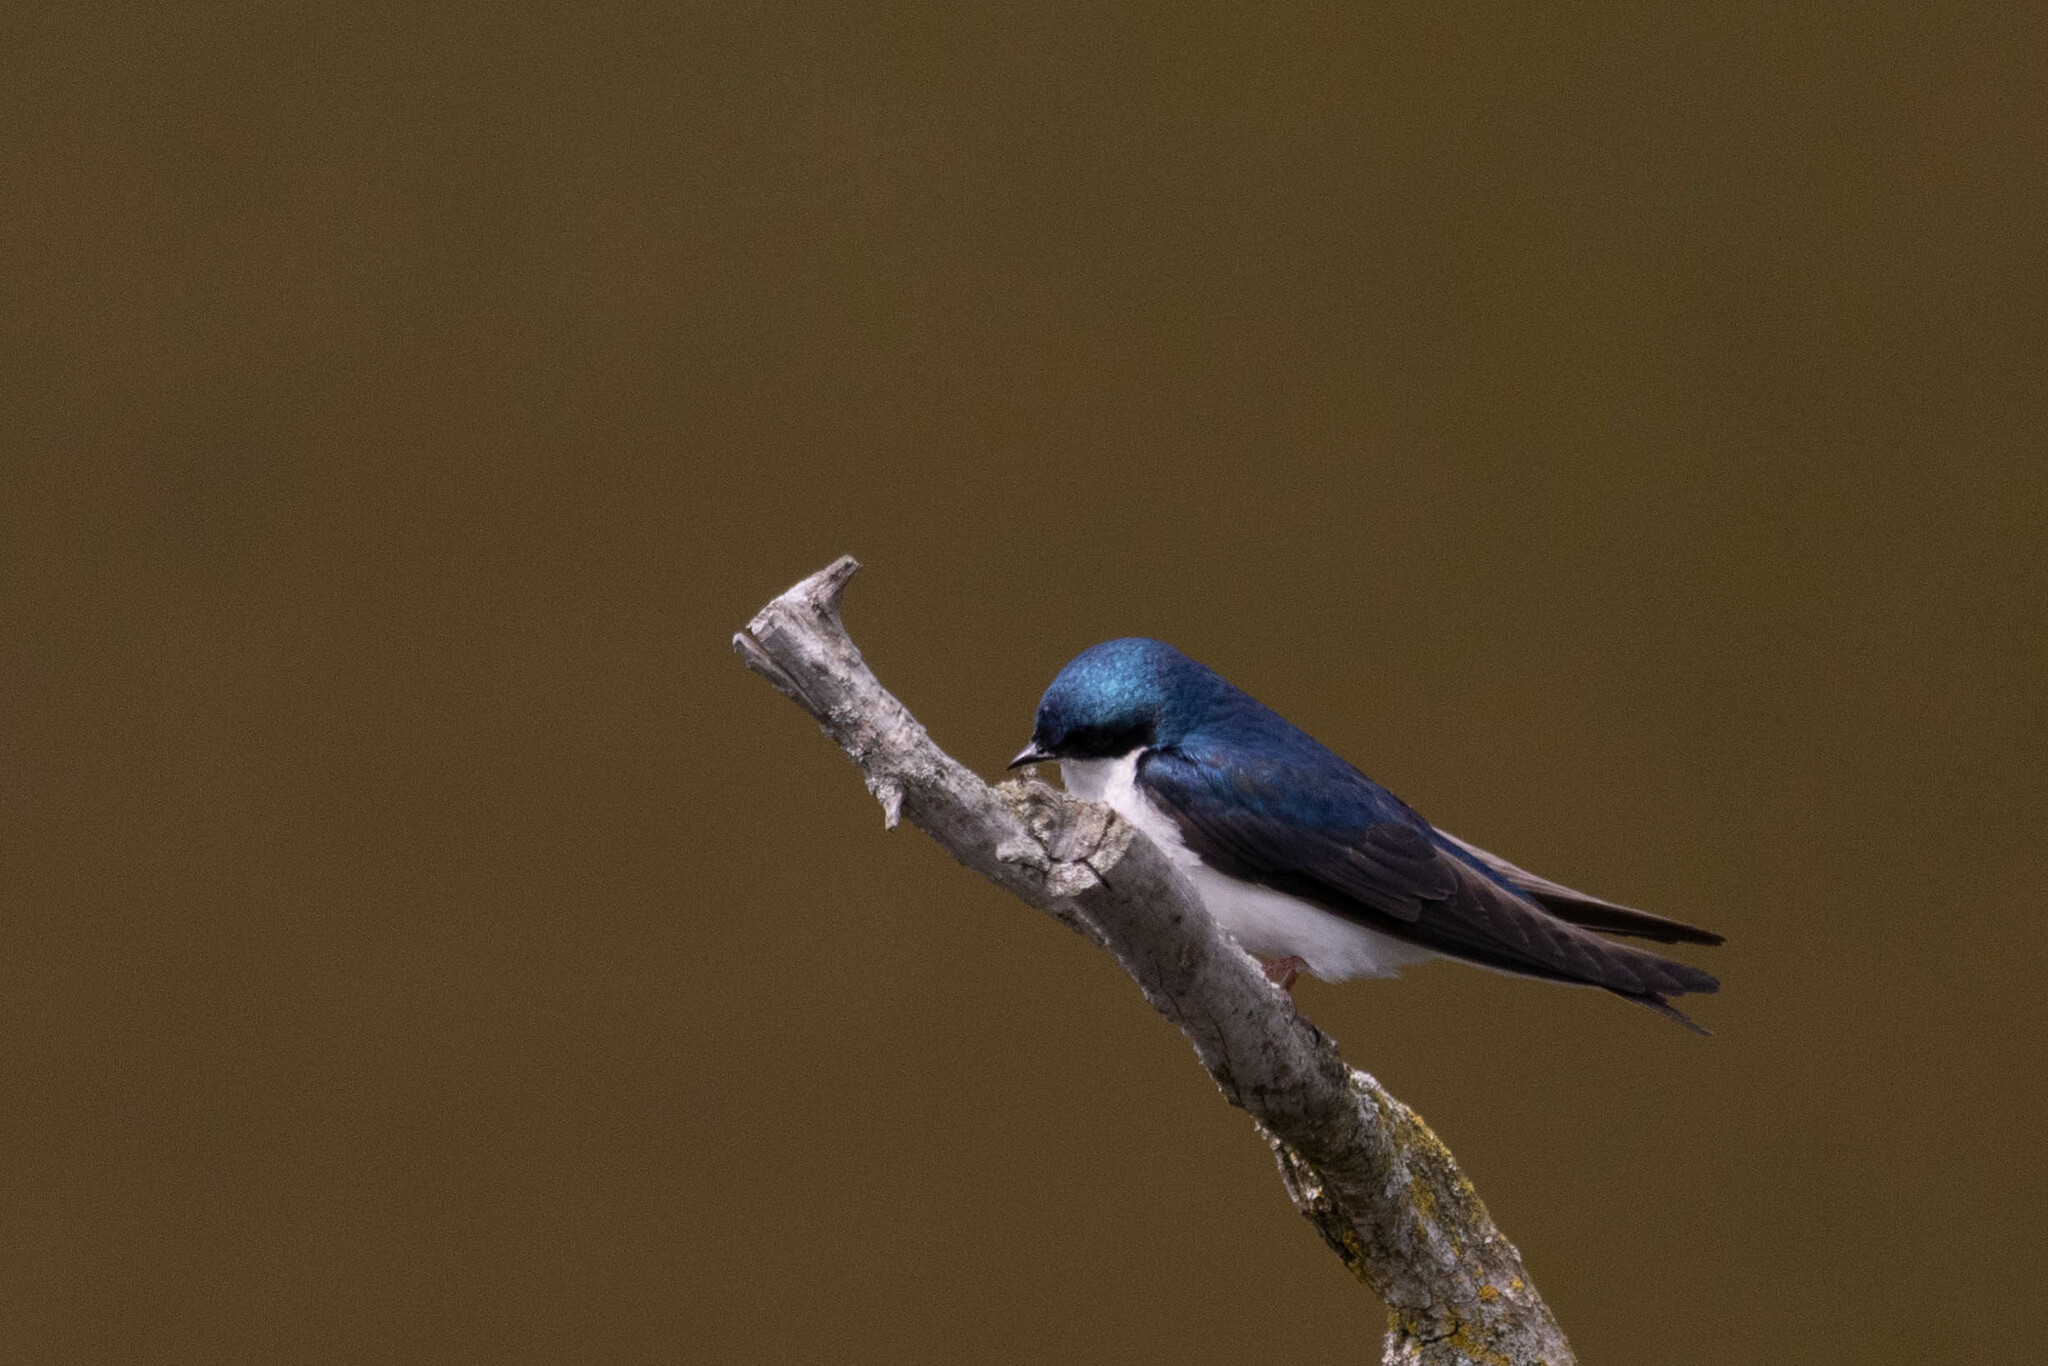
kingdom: Animalia
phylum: Chordata
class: Aves
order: Passeriformes
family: Hirundinidae
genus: Tachycineta
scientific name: Tachycineta bicolor
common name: Tree swallow
